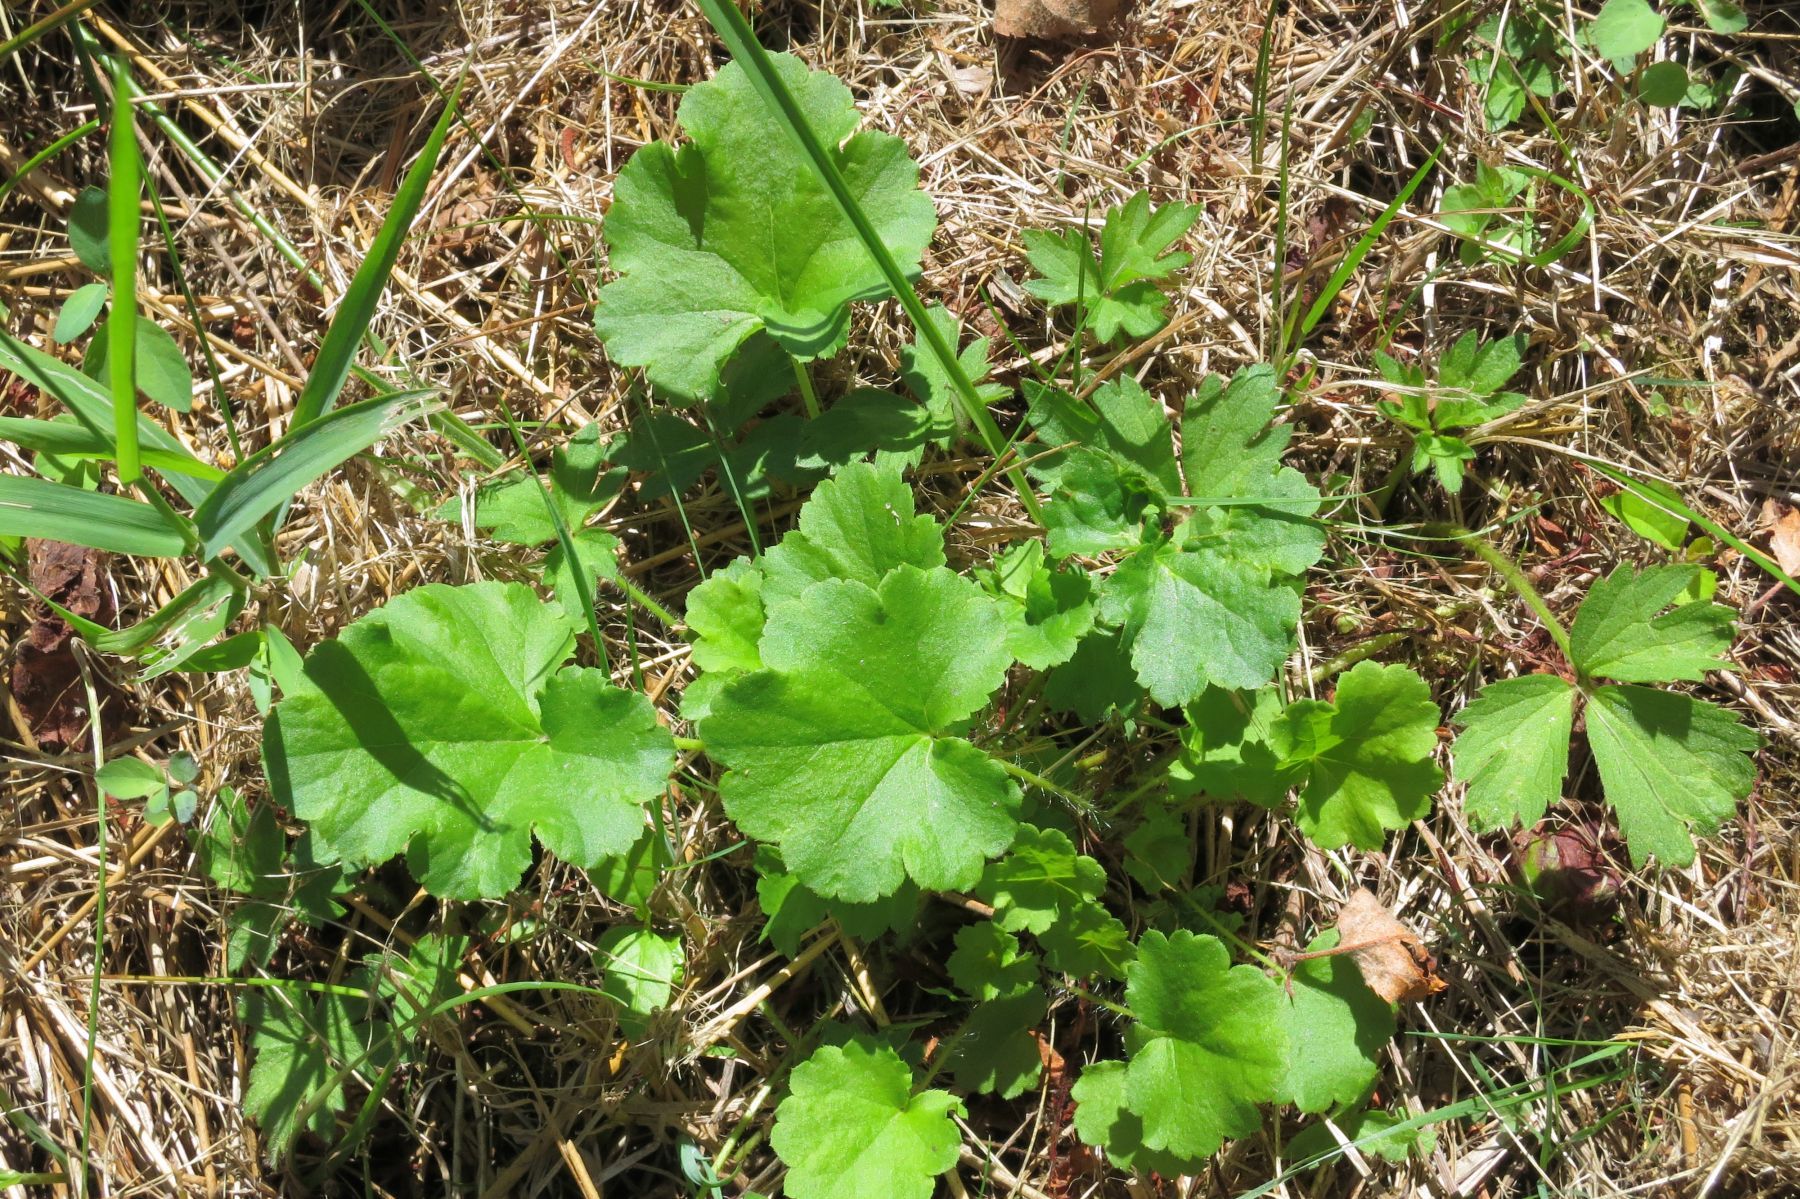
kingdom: Plantae
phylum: Tracheophyta
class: Magnoliopsida
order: Saxifragales
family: Saxifragaceae
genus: Heuchera
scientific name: Heuchera chlorantha
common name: Meadow alumroot
